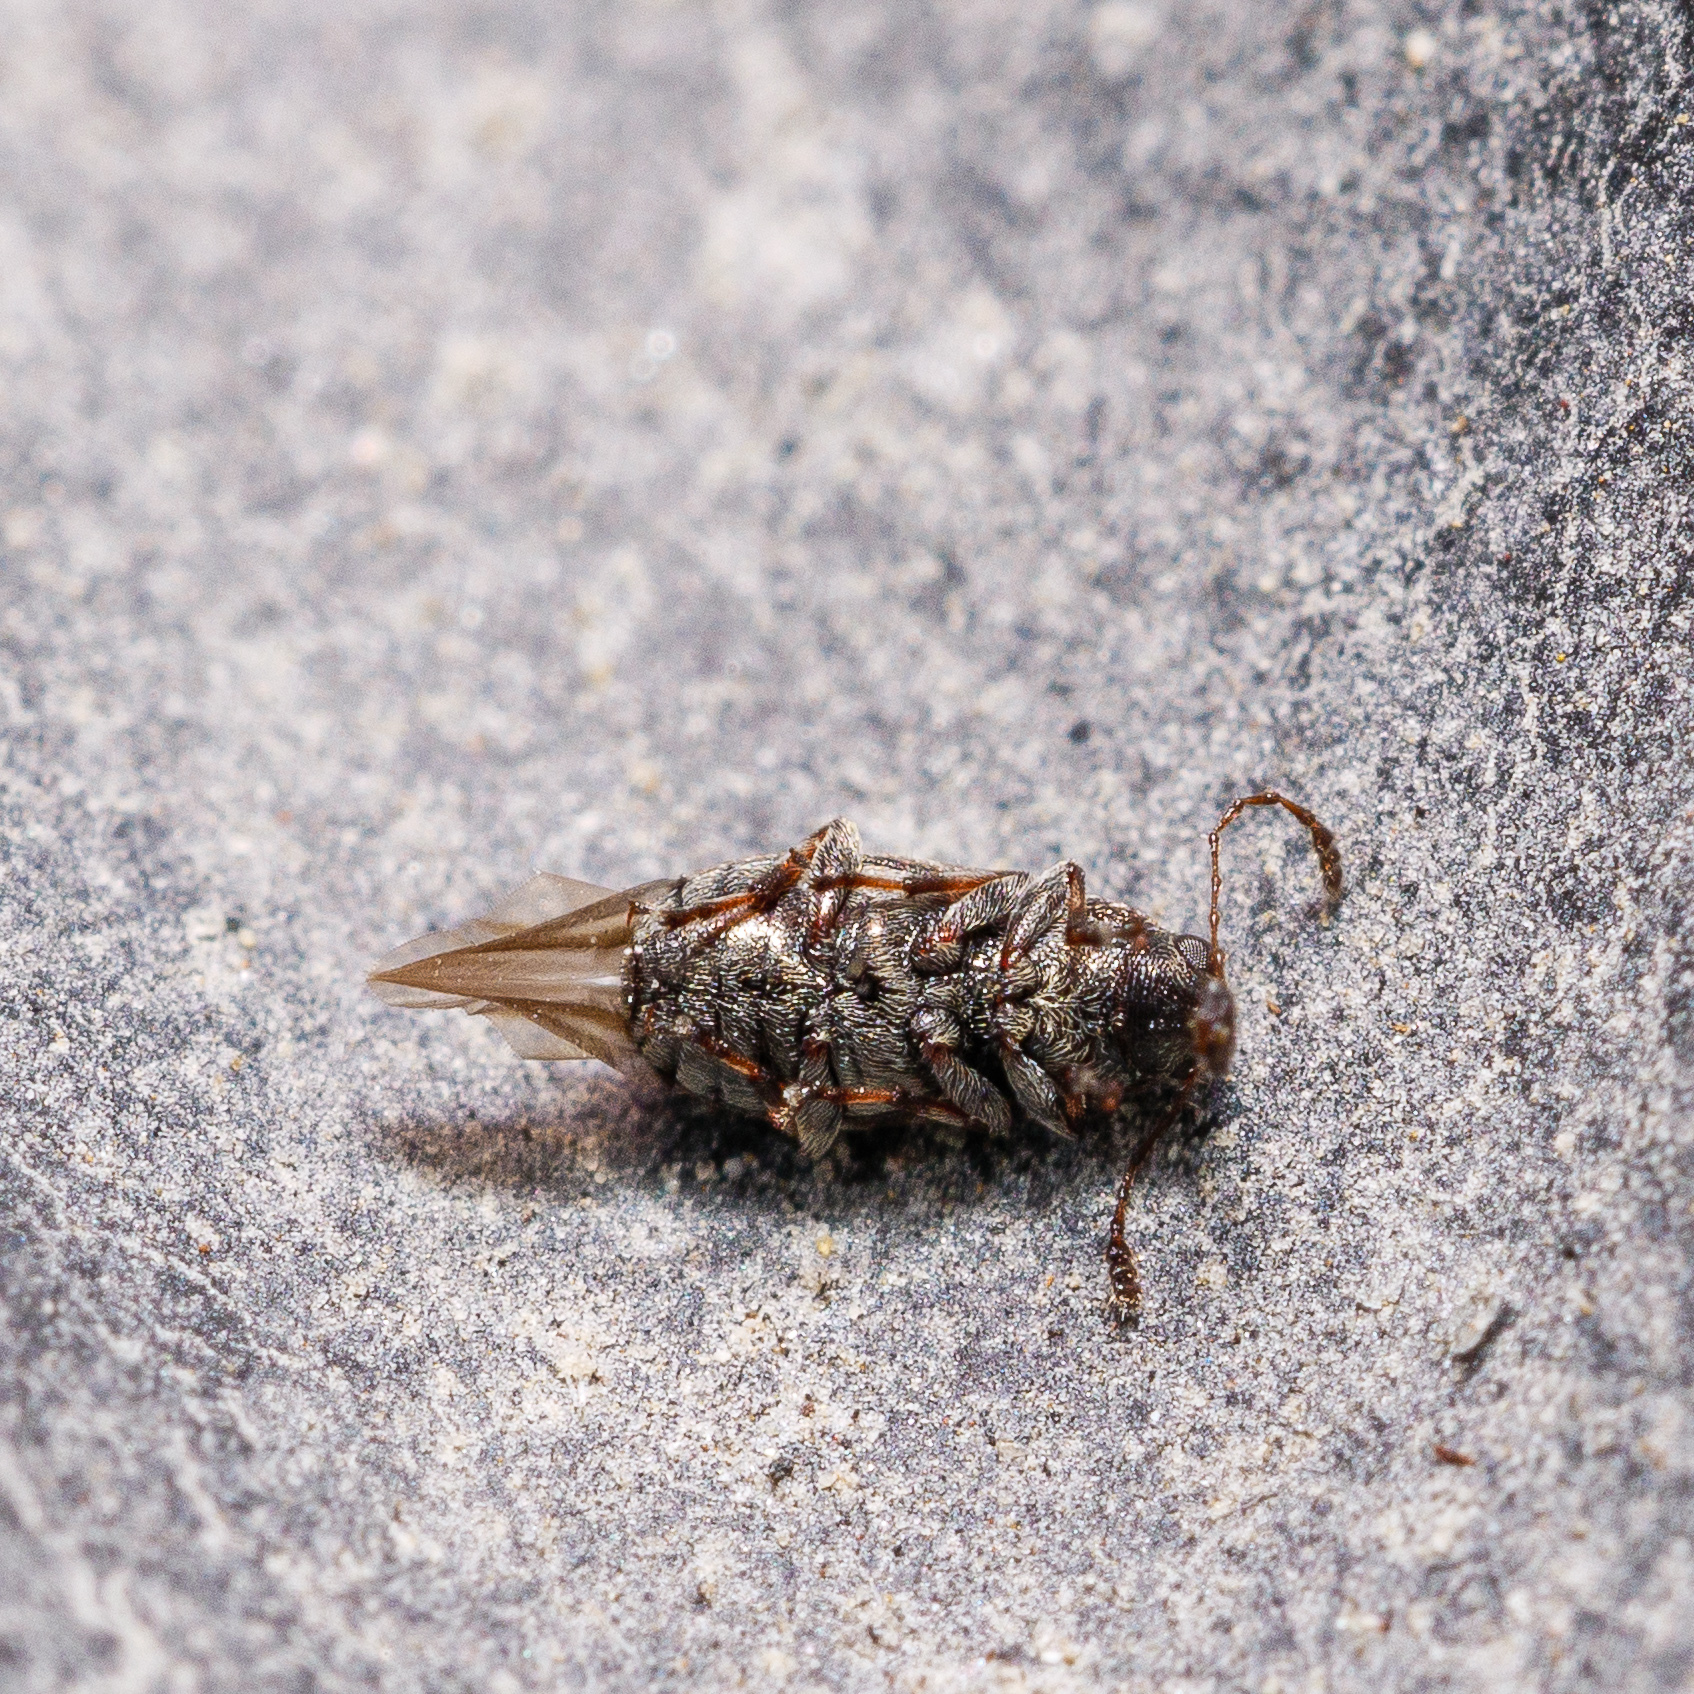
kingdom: Animalia
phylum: Arthropoda
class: Insecta
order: Coleoptera
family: Anthribidae
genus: Helmoreus
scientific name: Helmoreus
